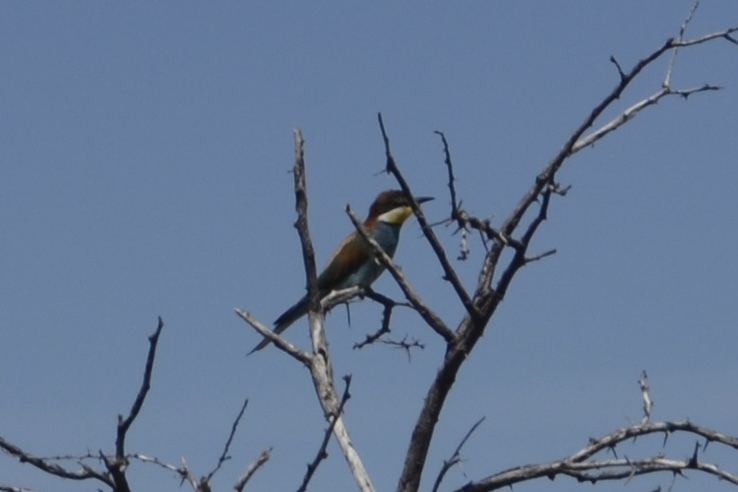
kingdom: Animalia
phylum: Chordata
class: Aves
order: Coraciiformes
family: Meropidae
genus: Merops
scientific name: Merops apiaster
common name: European bee-eater
